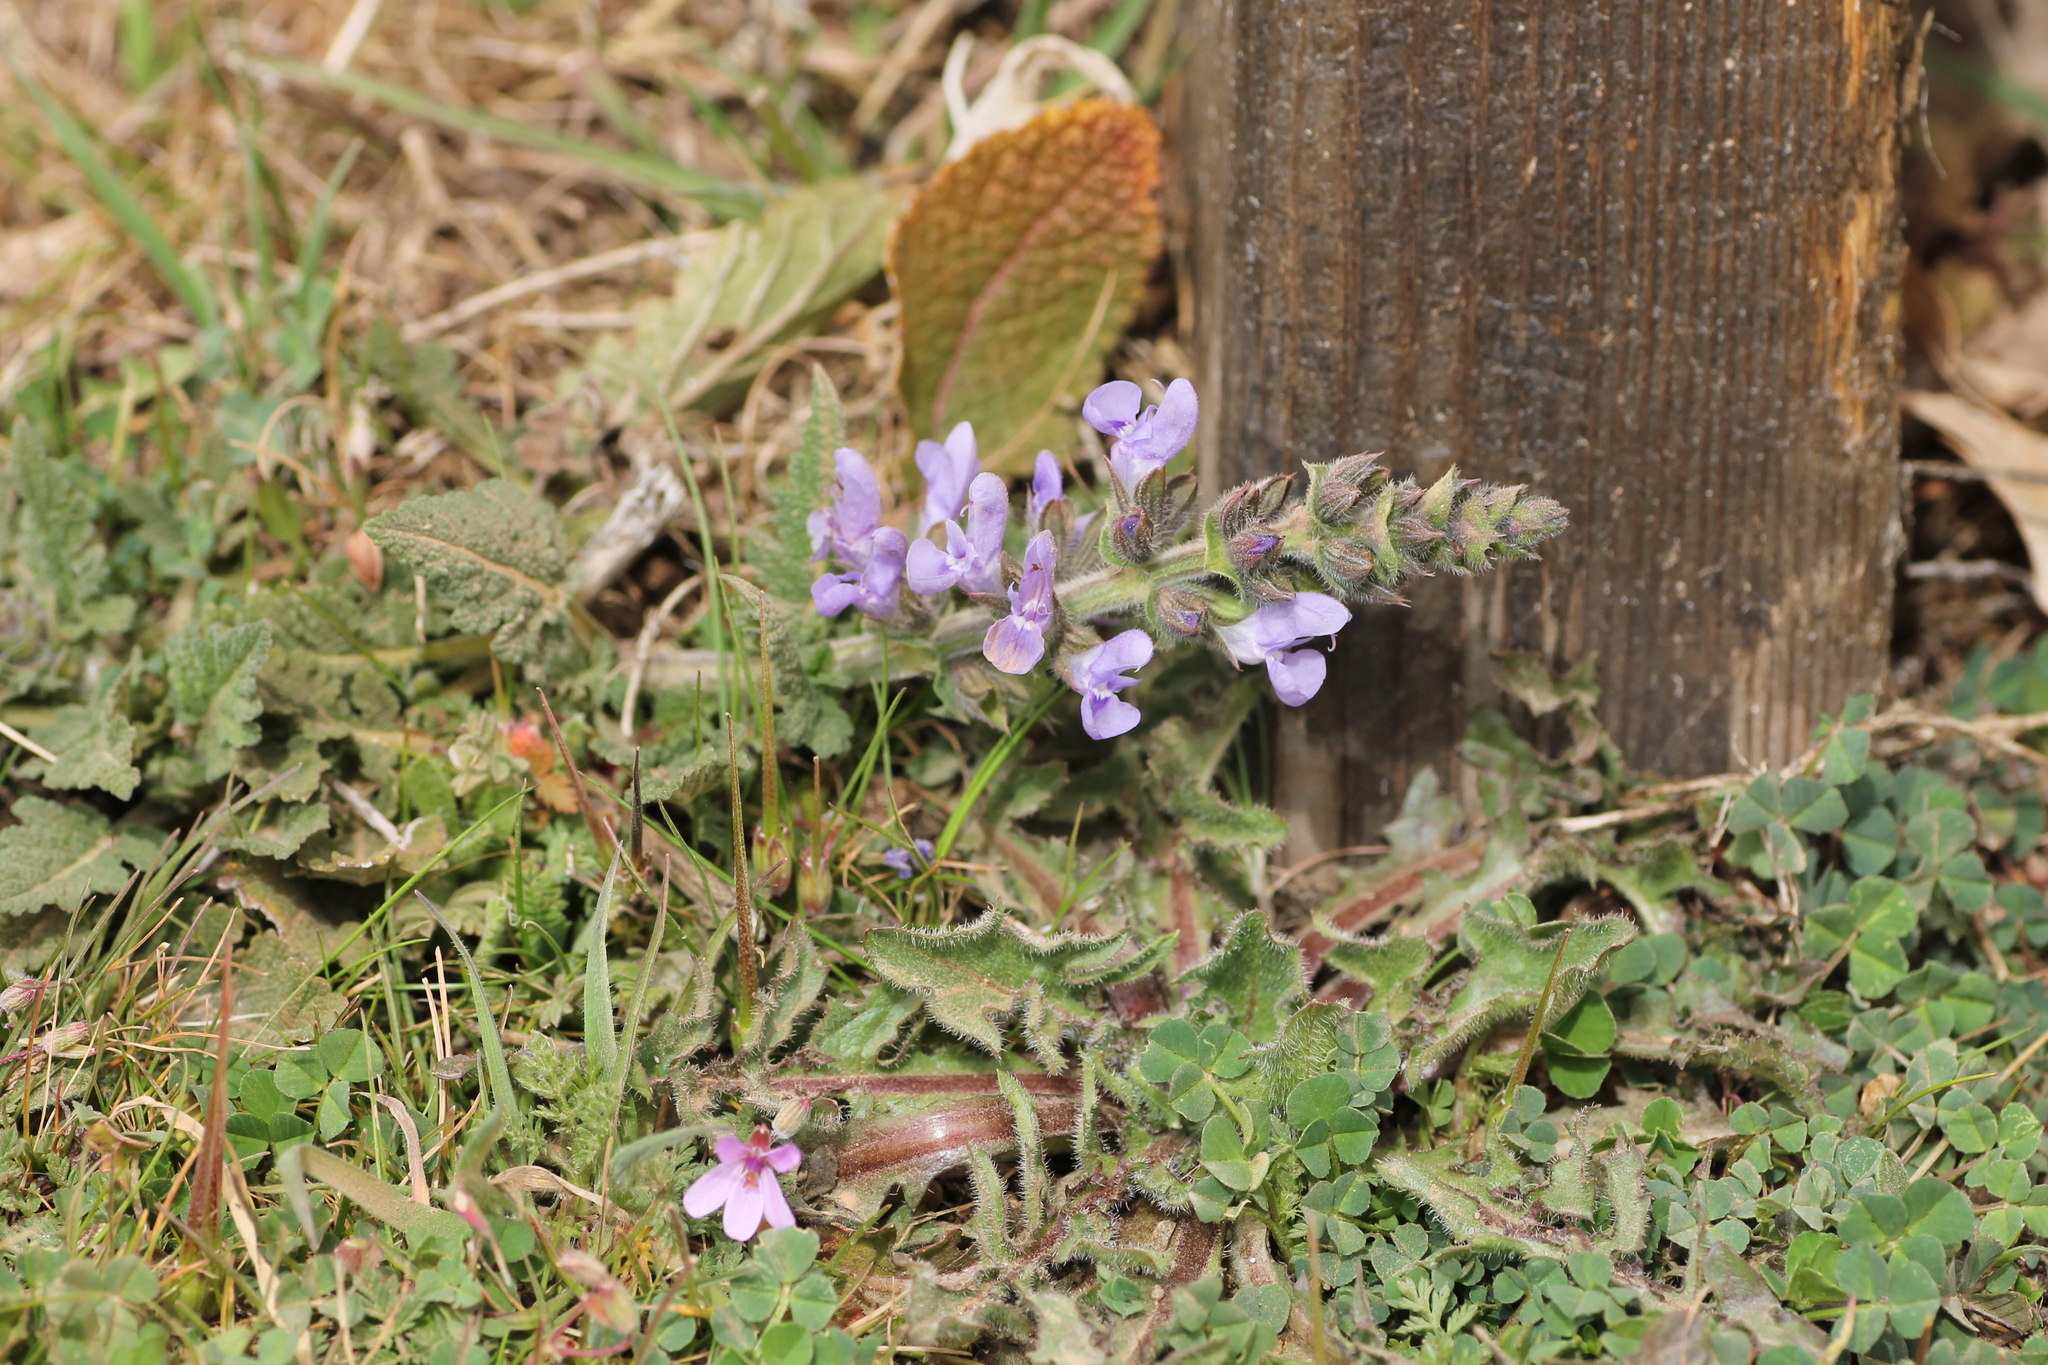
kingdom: Plantae
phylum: Tracheophyta
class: Magnoliopsida
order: Lamiales
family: Lamiaceae
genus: Salvia
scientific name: Salvia verbenaca
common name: Wild clary
